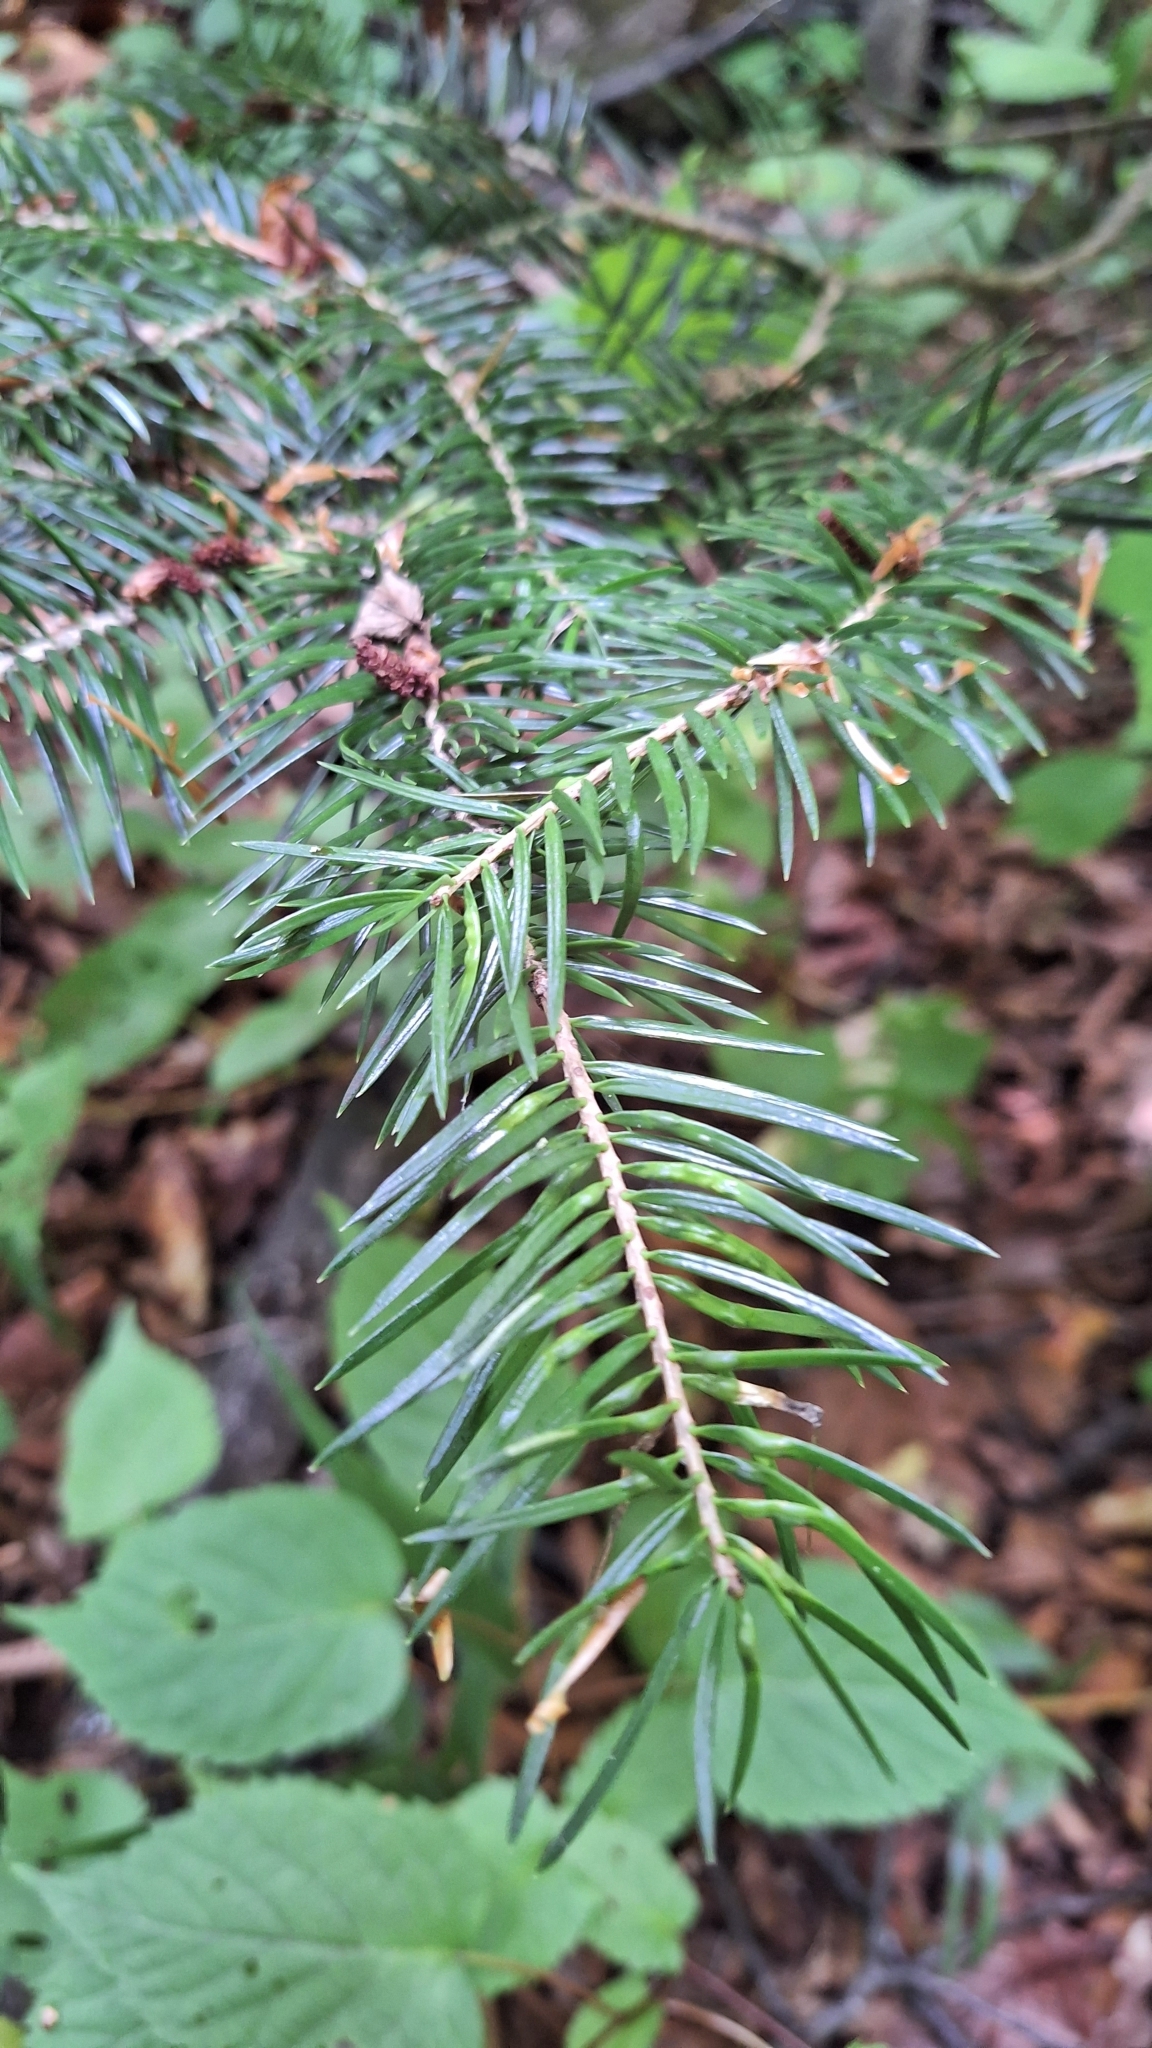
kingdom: Plantae
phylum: Tracheophyta
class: Pinopsida
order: Pinales
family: Pinaceae
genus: Abies
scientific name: Abies holophylla
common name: Manchurian fir
